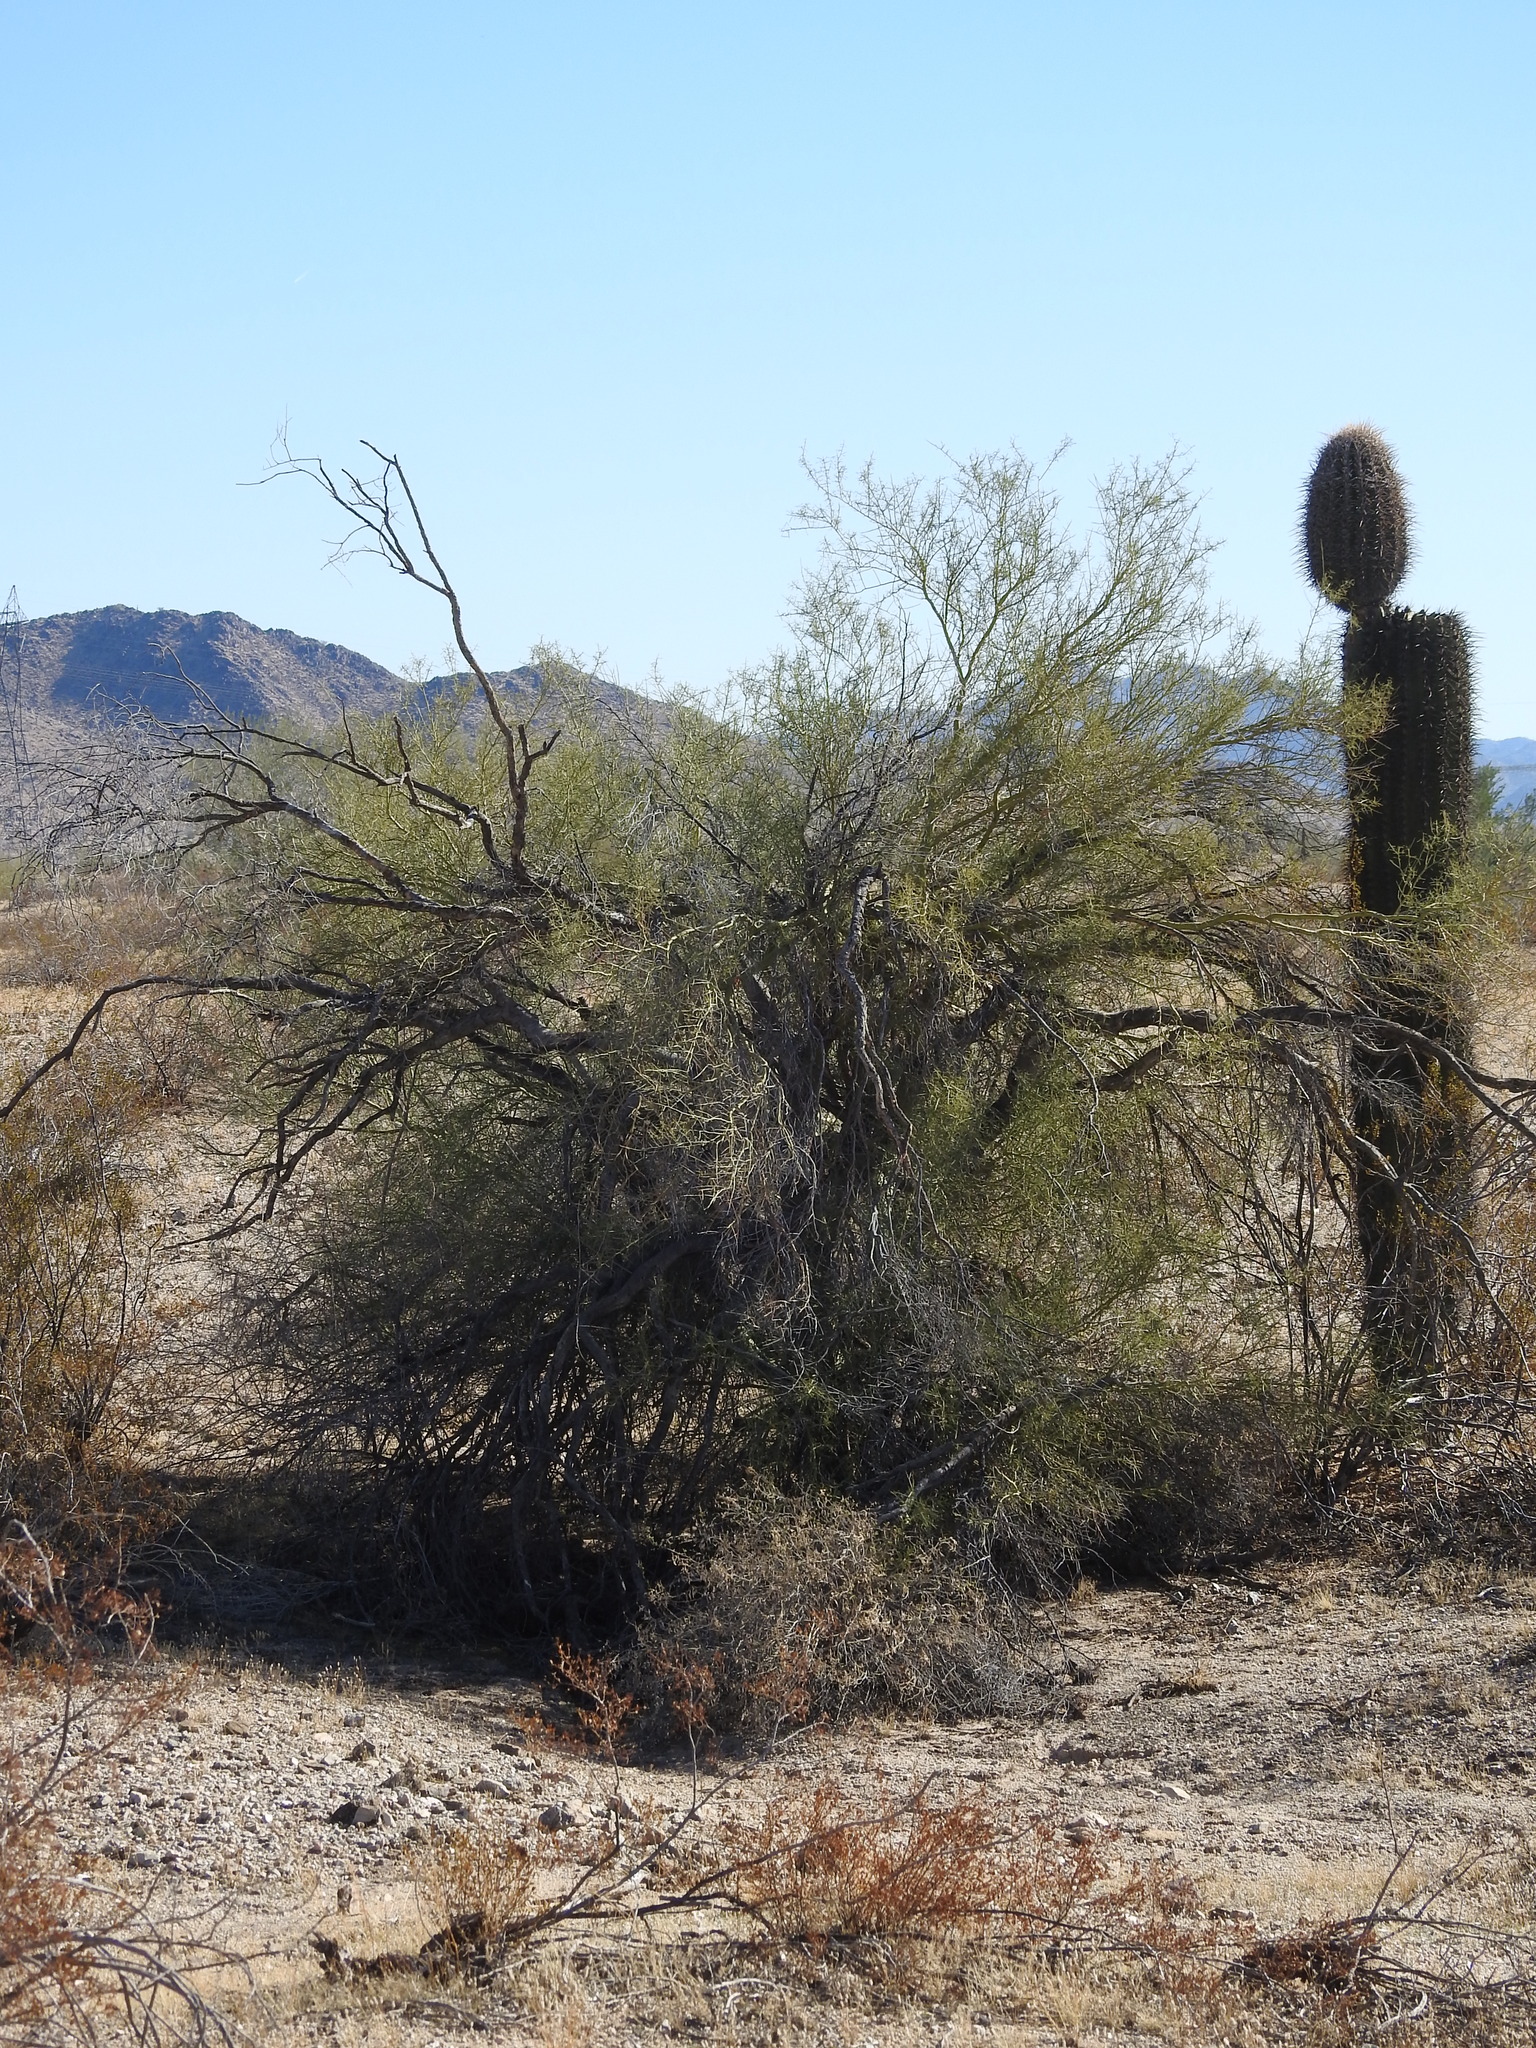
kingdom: Plantae
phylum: Tracheophyta
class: Magnoliopsida
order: Fabales
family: Fabaceae
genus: Parkinsonia
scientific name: Parkinsonia microphylla
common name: Yellow paloverde
